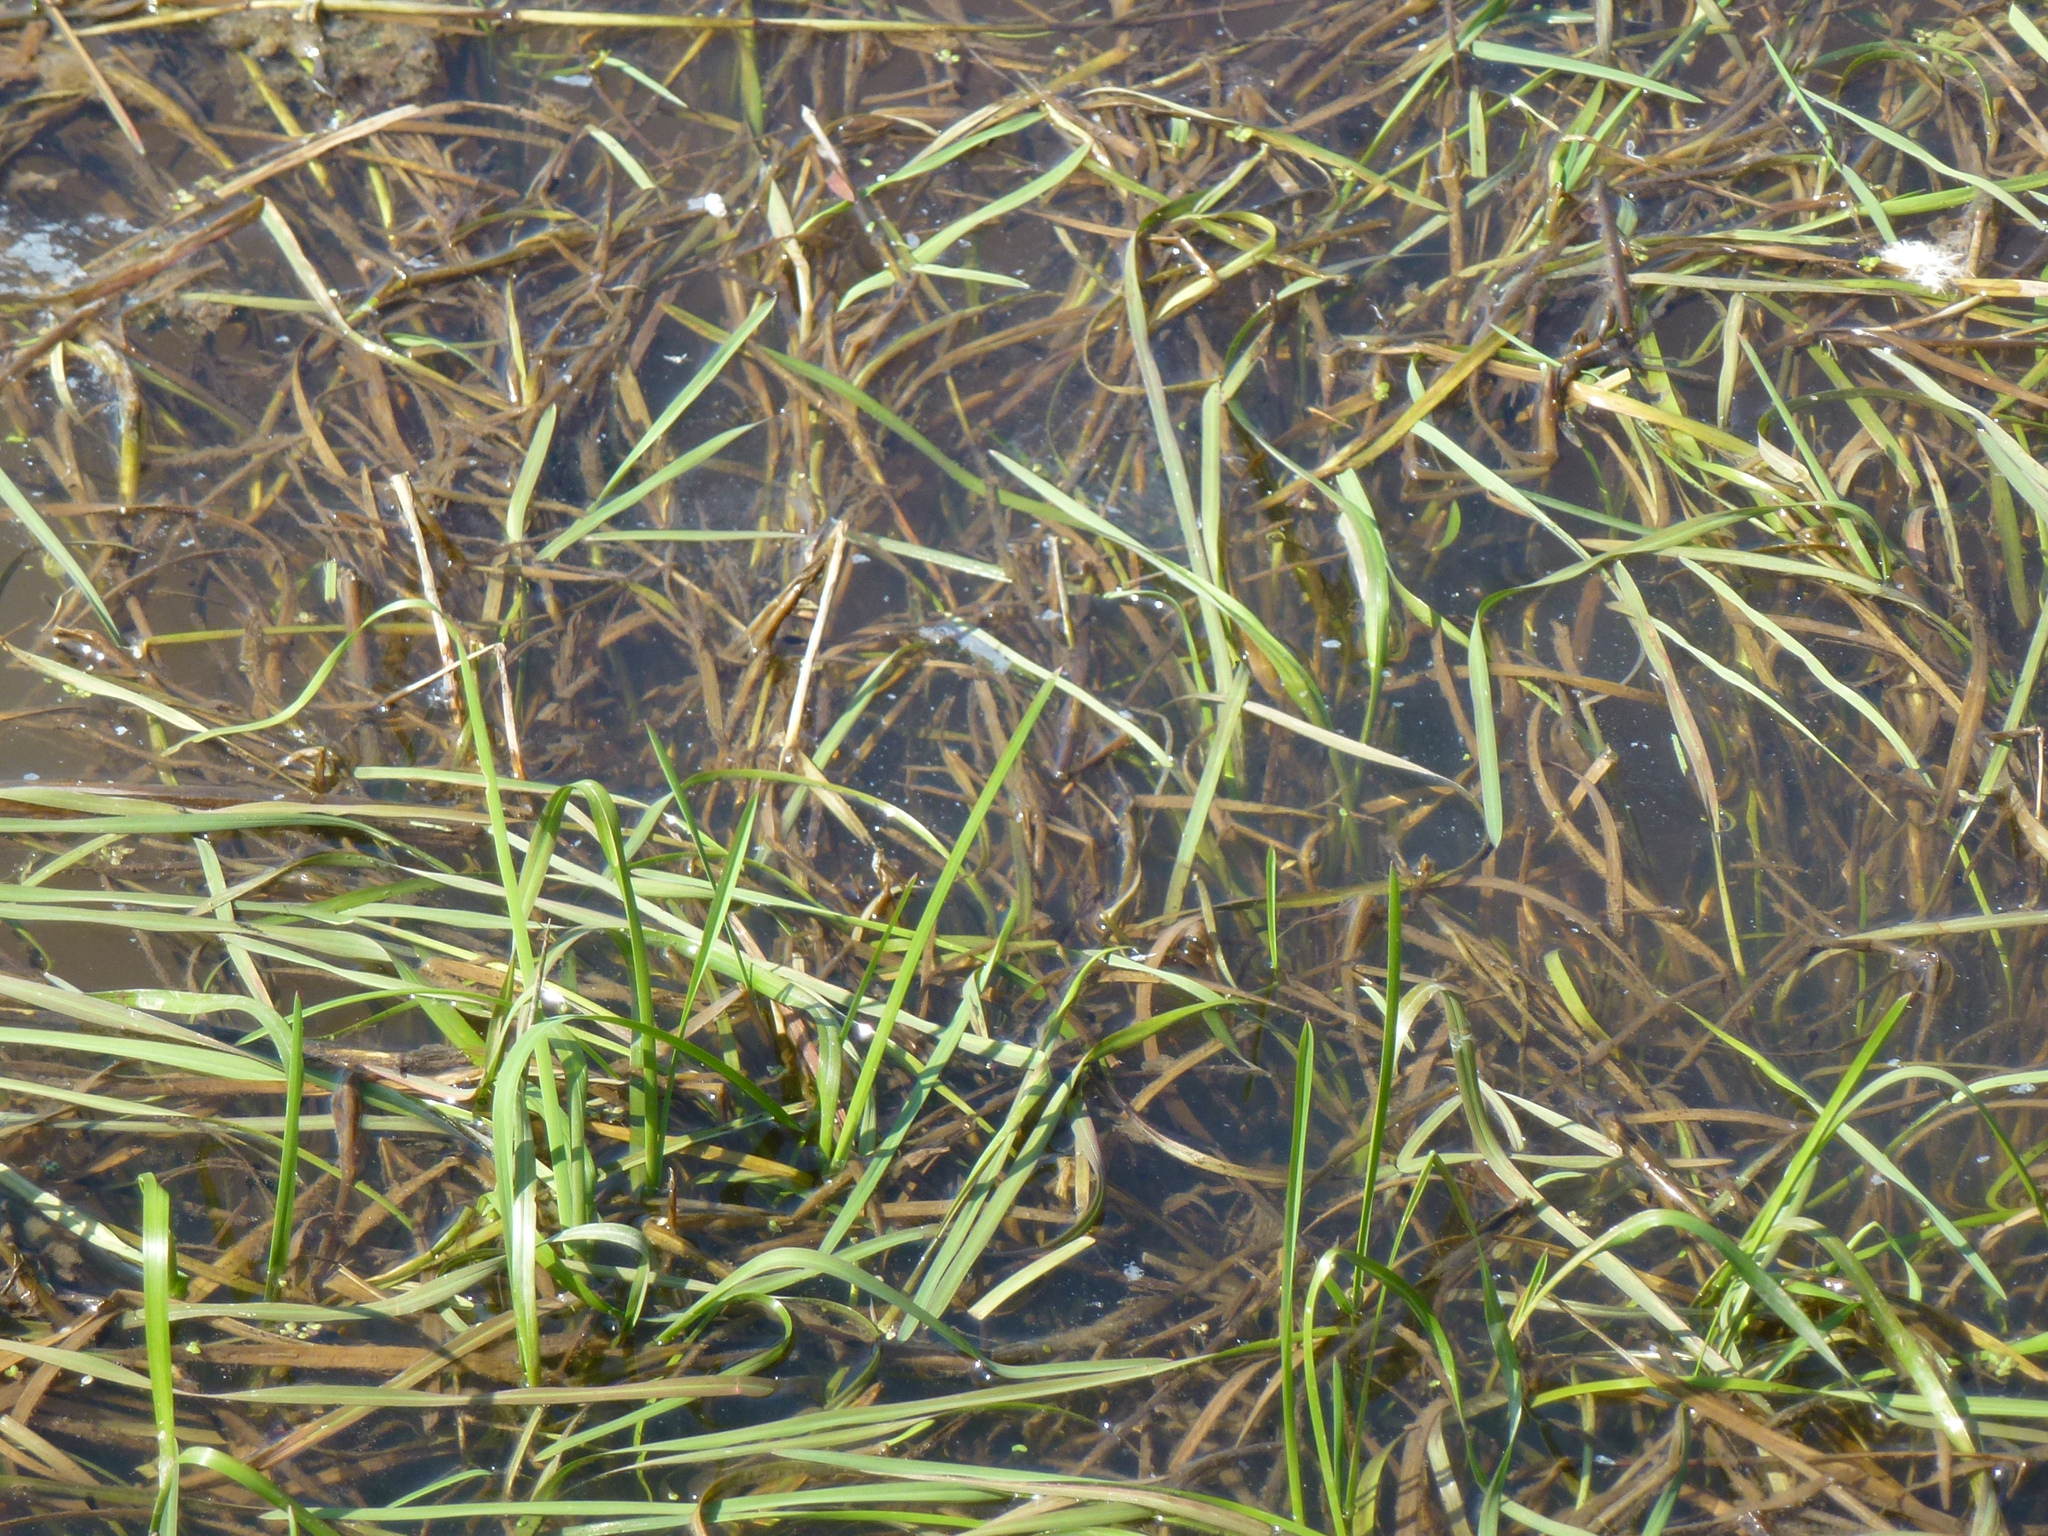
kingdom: Plantae
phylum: Tracheophyta
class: Liliopsida
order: Poales
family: Poaceae
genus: Glyceria
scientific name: Glyceria fluitans
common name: Floating sweet-grass
